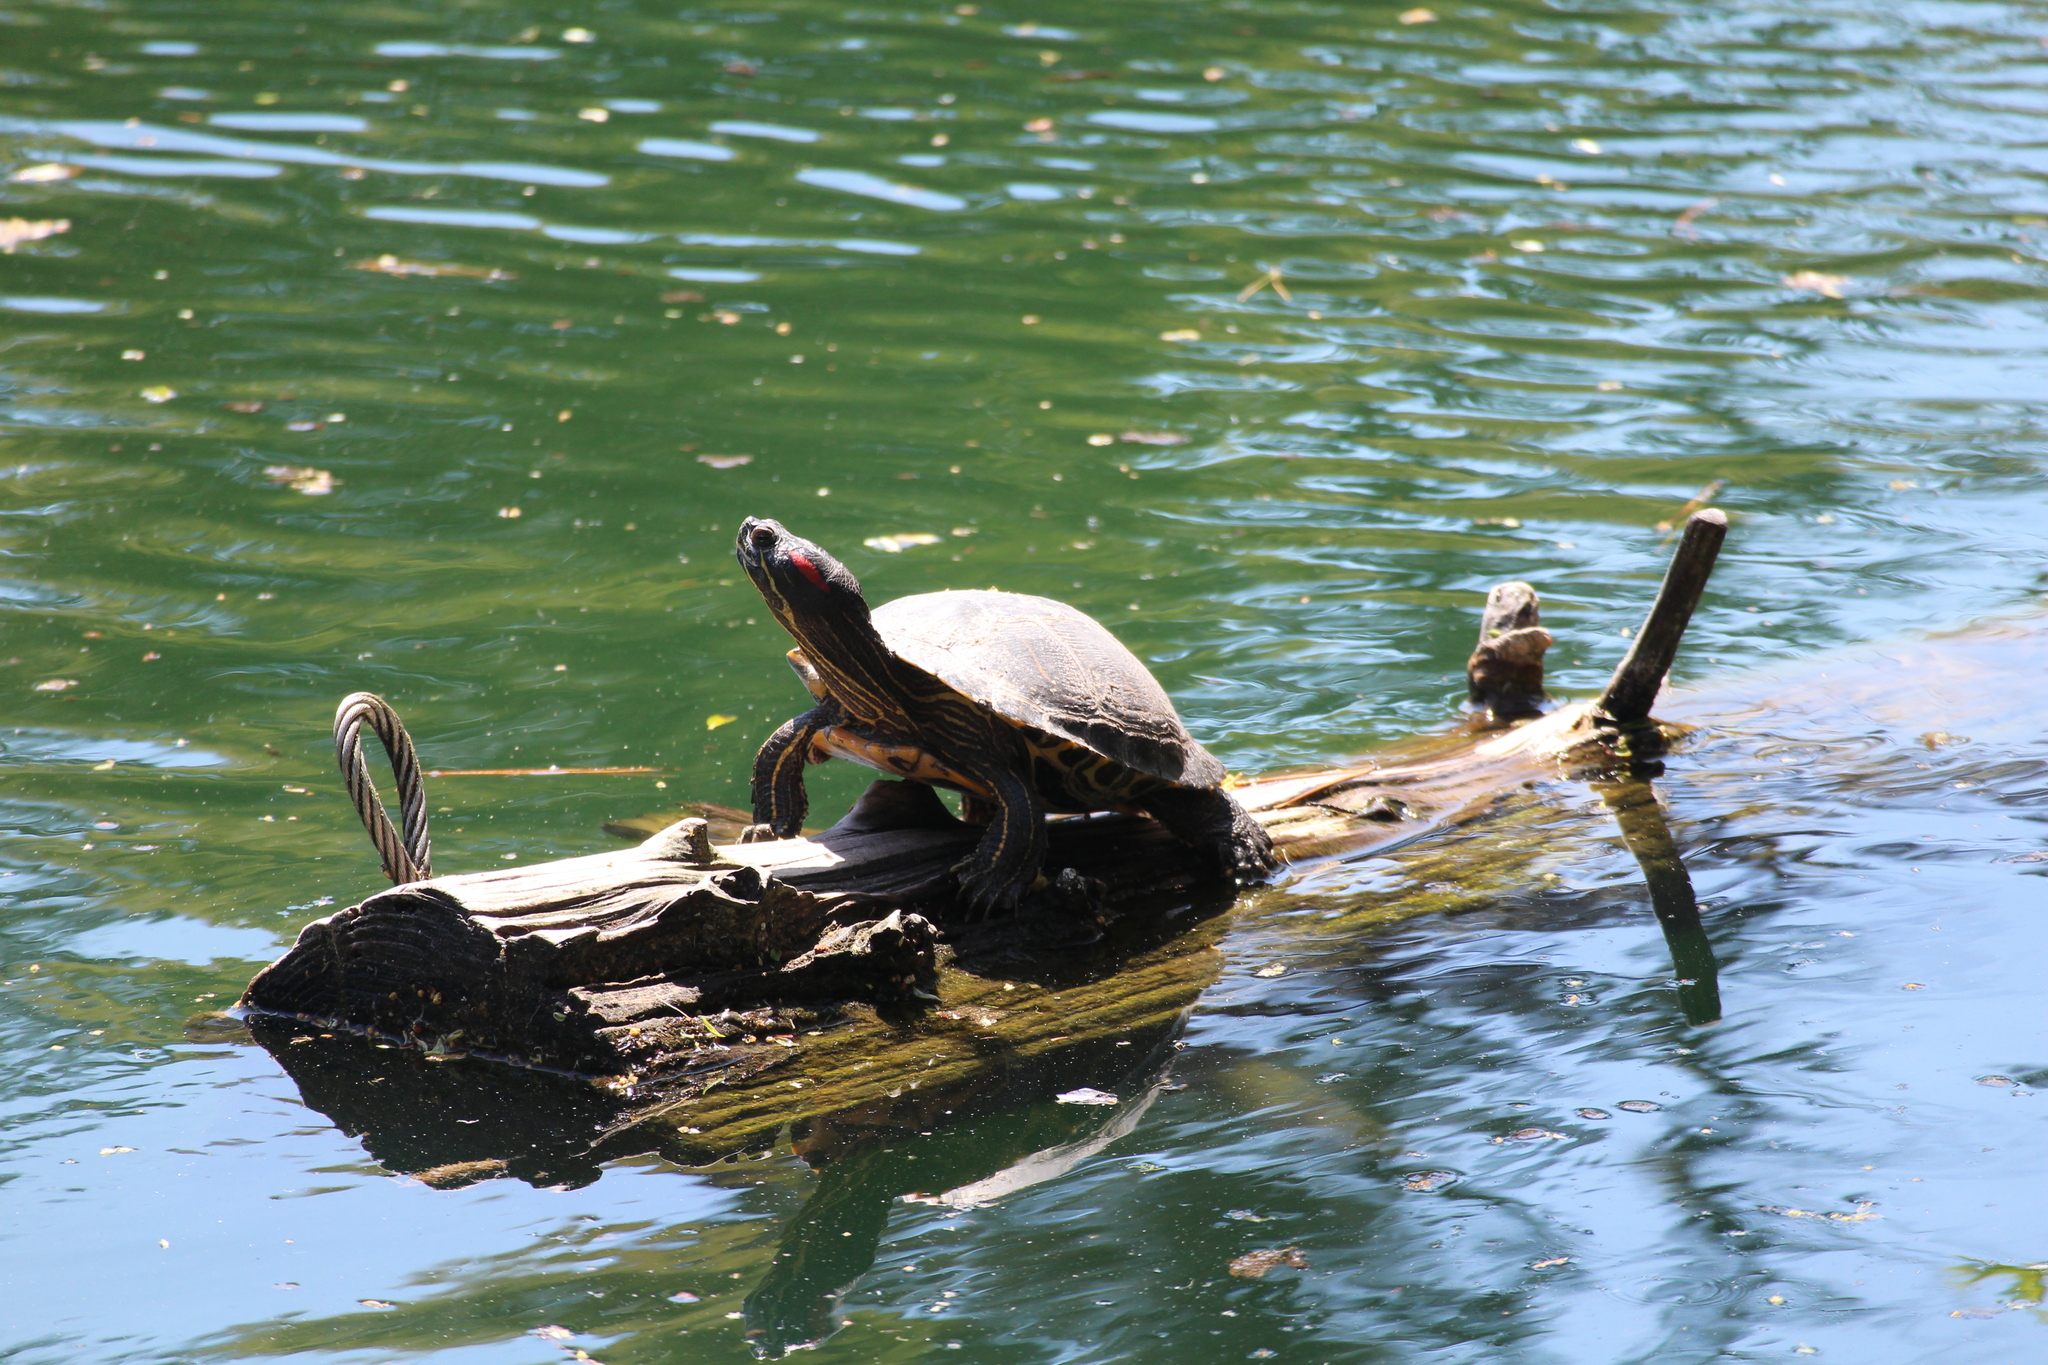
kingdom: Animalia
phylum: Chordata
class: Testudines
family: Emydidae
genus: Trachemys
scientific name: Trachemys scripta
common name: Slider
